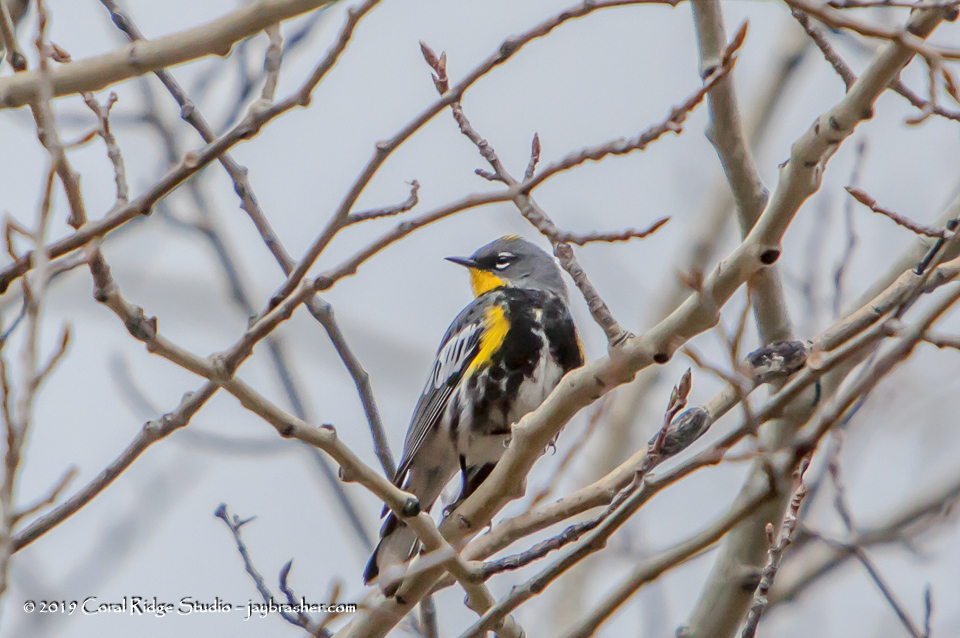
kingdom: Animalia
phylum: Chordata
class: Aves
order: Passeriformes
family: Parulidae
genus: Setophaga
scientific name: Setophaga auduboni
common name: Audubon's warbler
